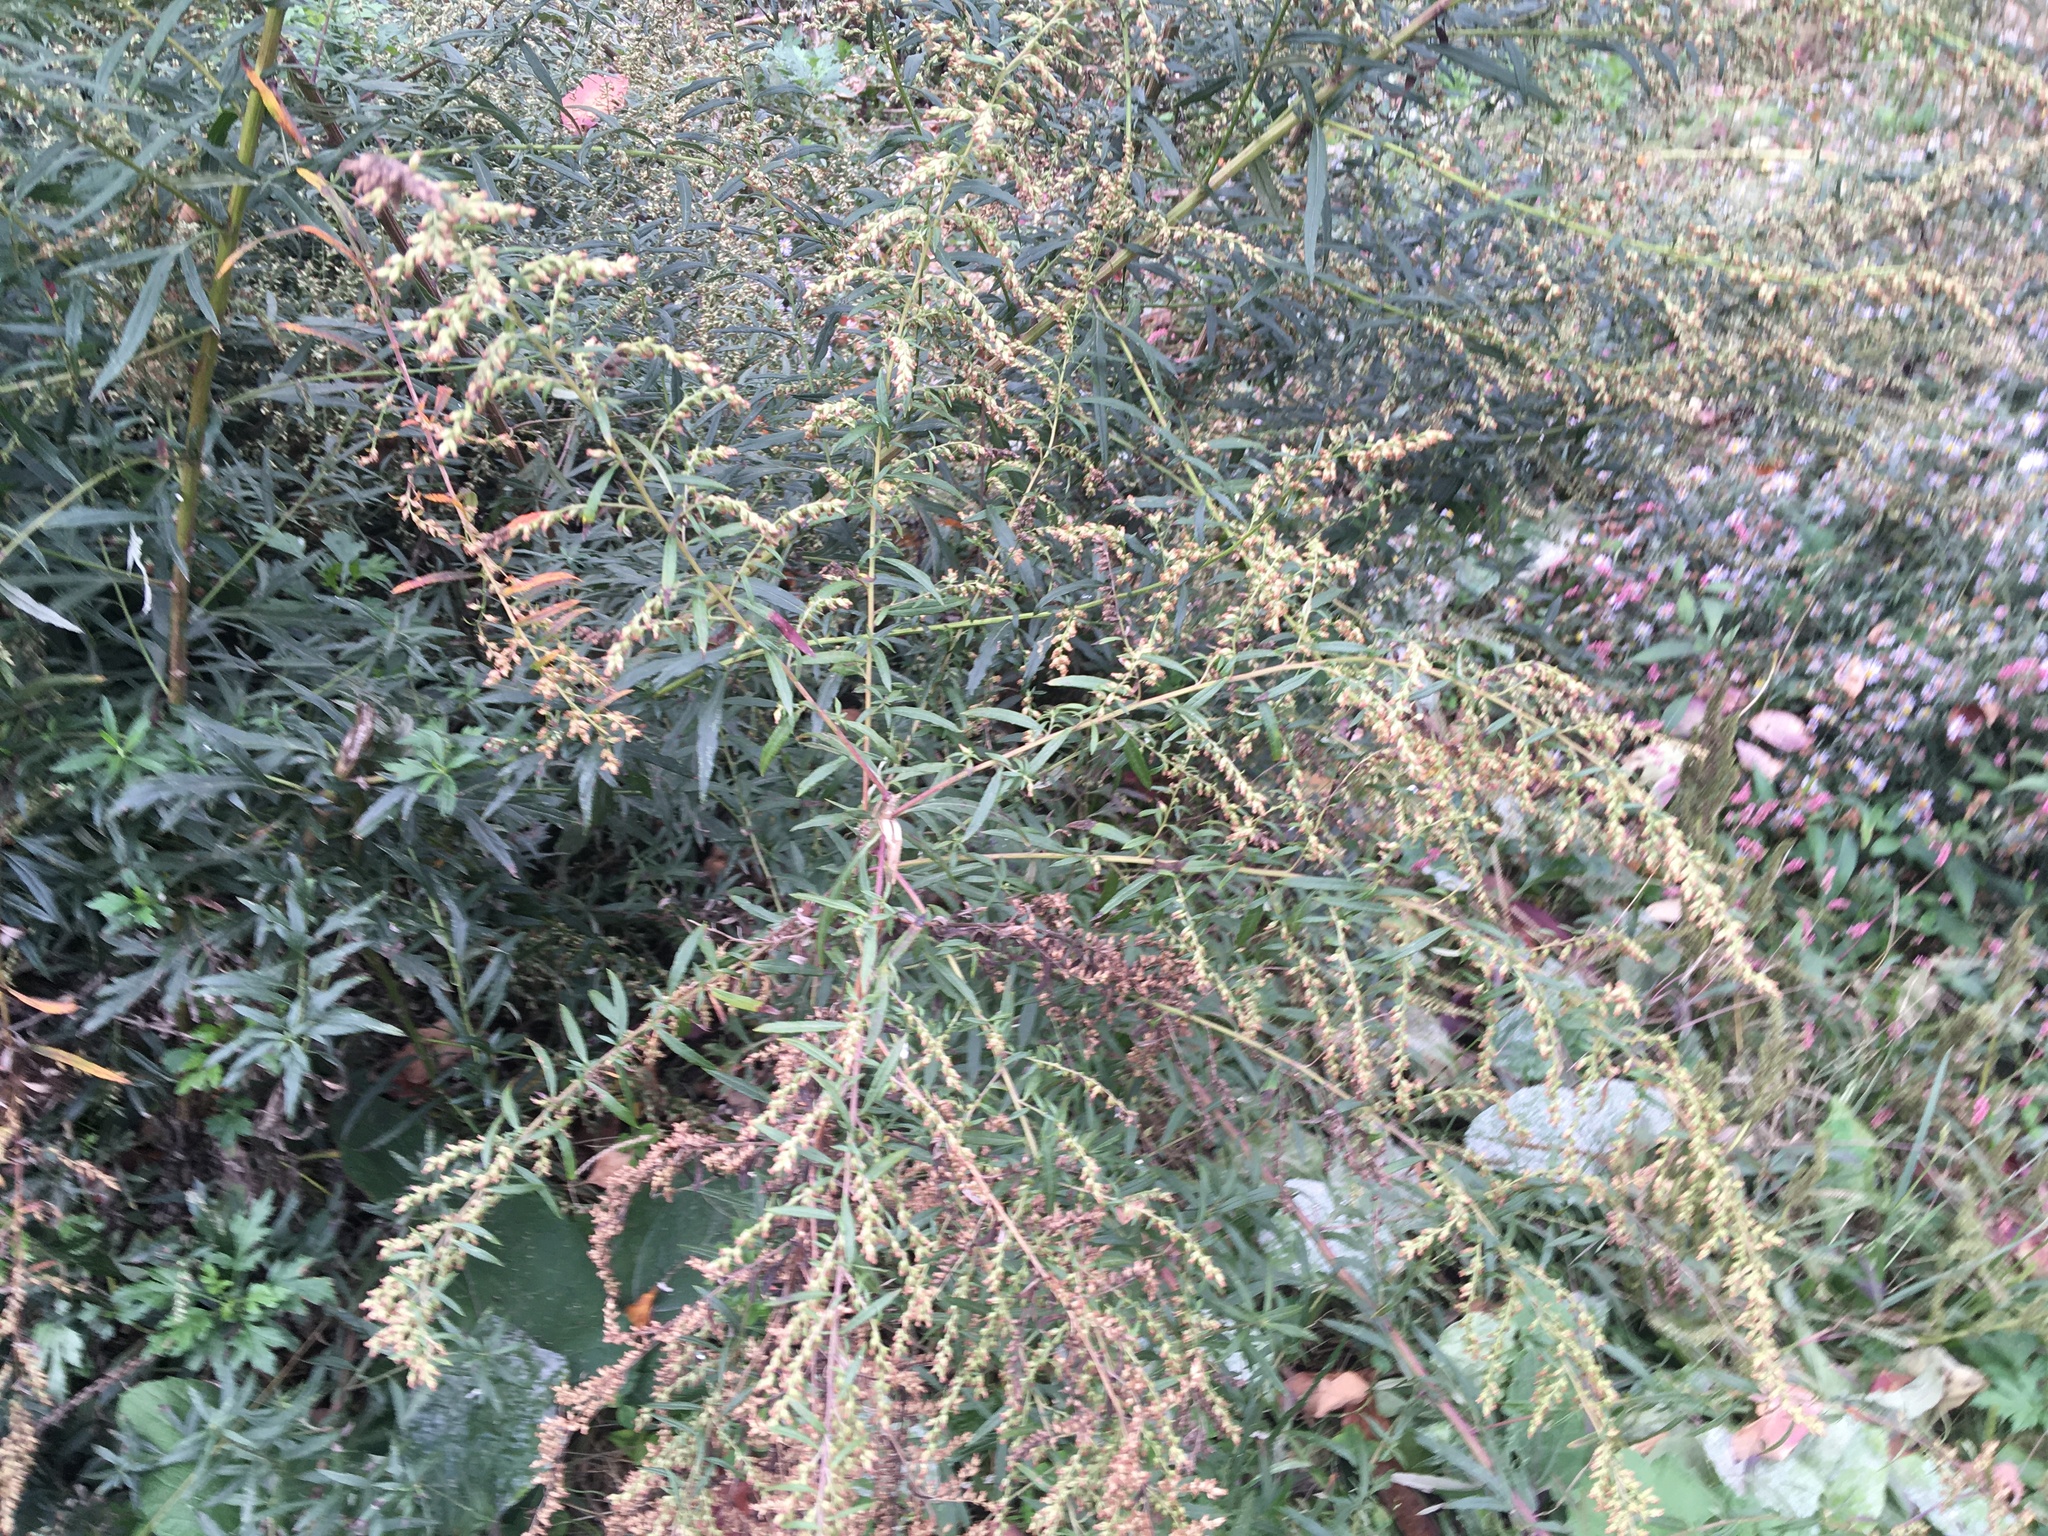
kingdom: Plantae
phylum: Tracheophyta
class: Magnoliopsida
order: Asterales
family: Asteraceae
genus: Artemisia
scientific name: Artemisia vulgaris
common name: Mugwort
